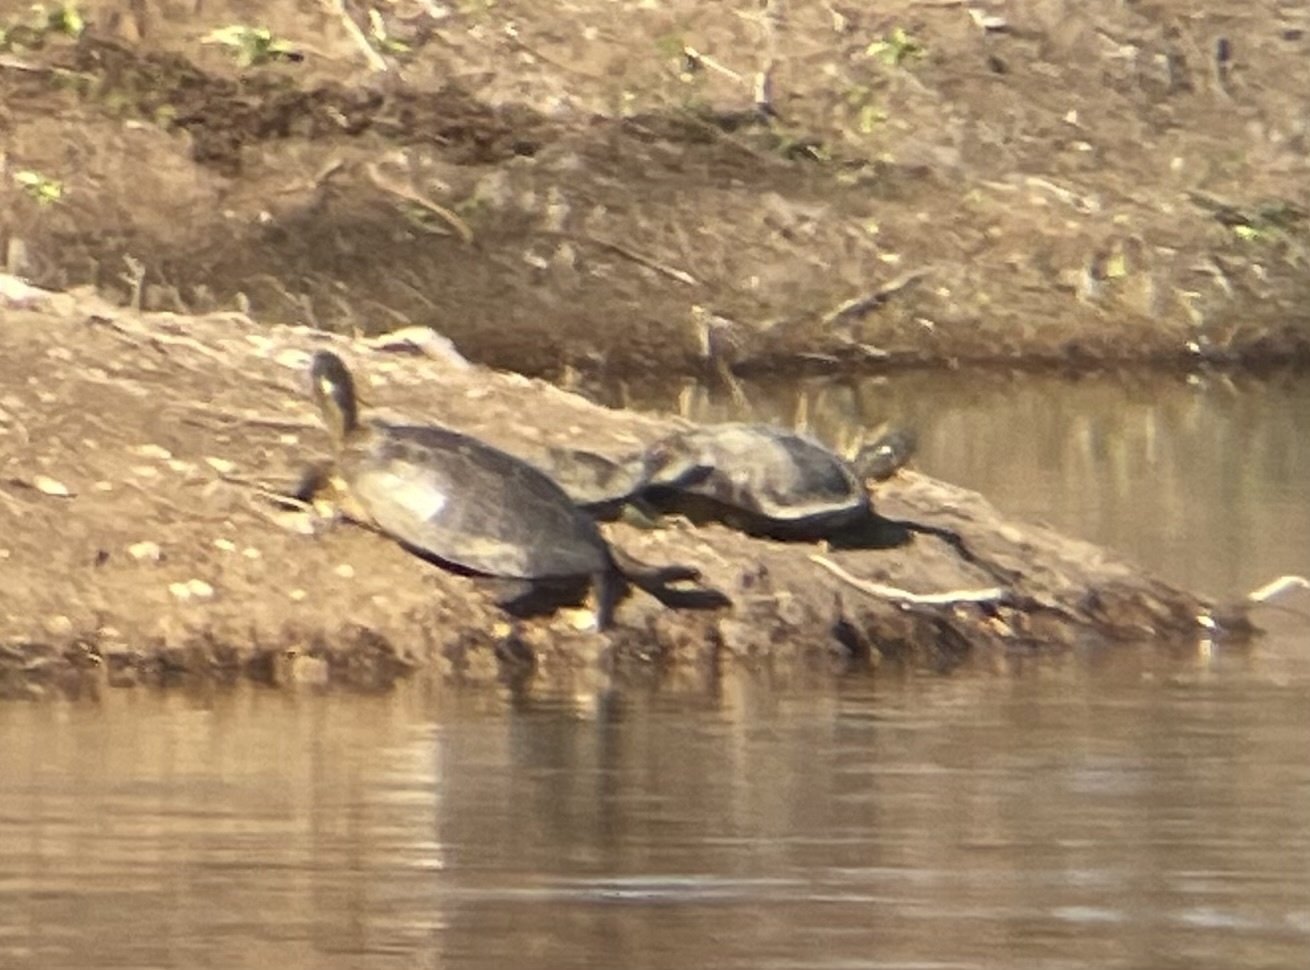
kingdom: Animalia
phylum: Chordata
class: Testudines
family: Emydidae
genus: Trachemys
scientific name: Trachemys scripta
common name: Slider
